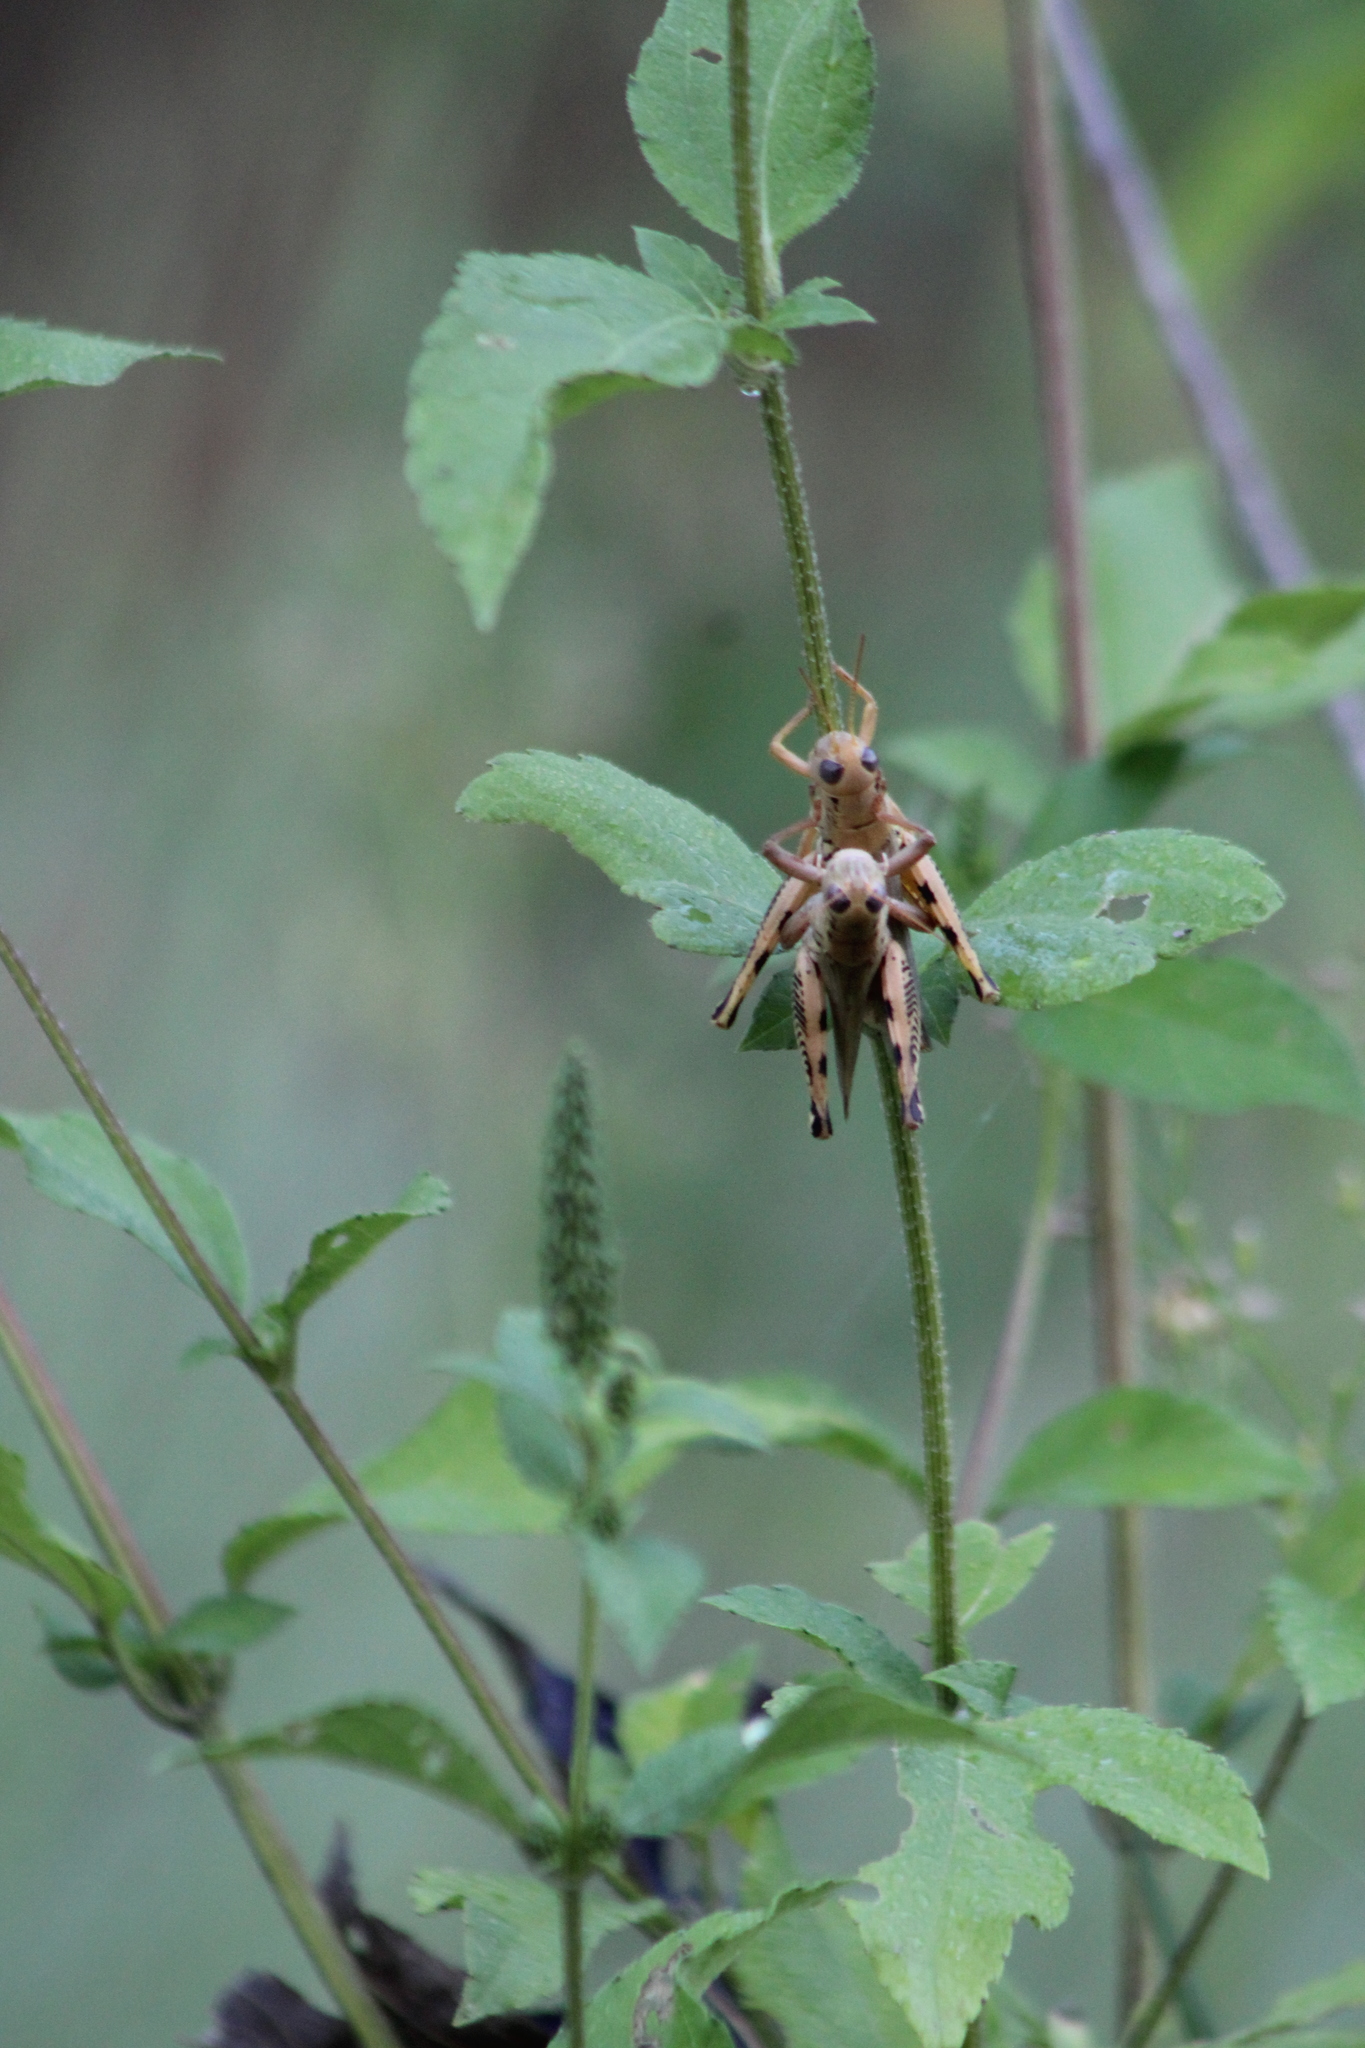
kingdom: Plantae
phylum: Tracheophyta
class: Magnoliopsida
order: Asterales
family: Asteraceae
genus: Ambrosia
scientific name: Ambrosia trifida
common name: Giant ragweed
